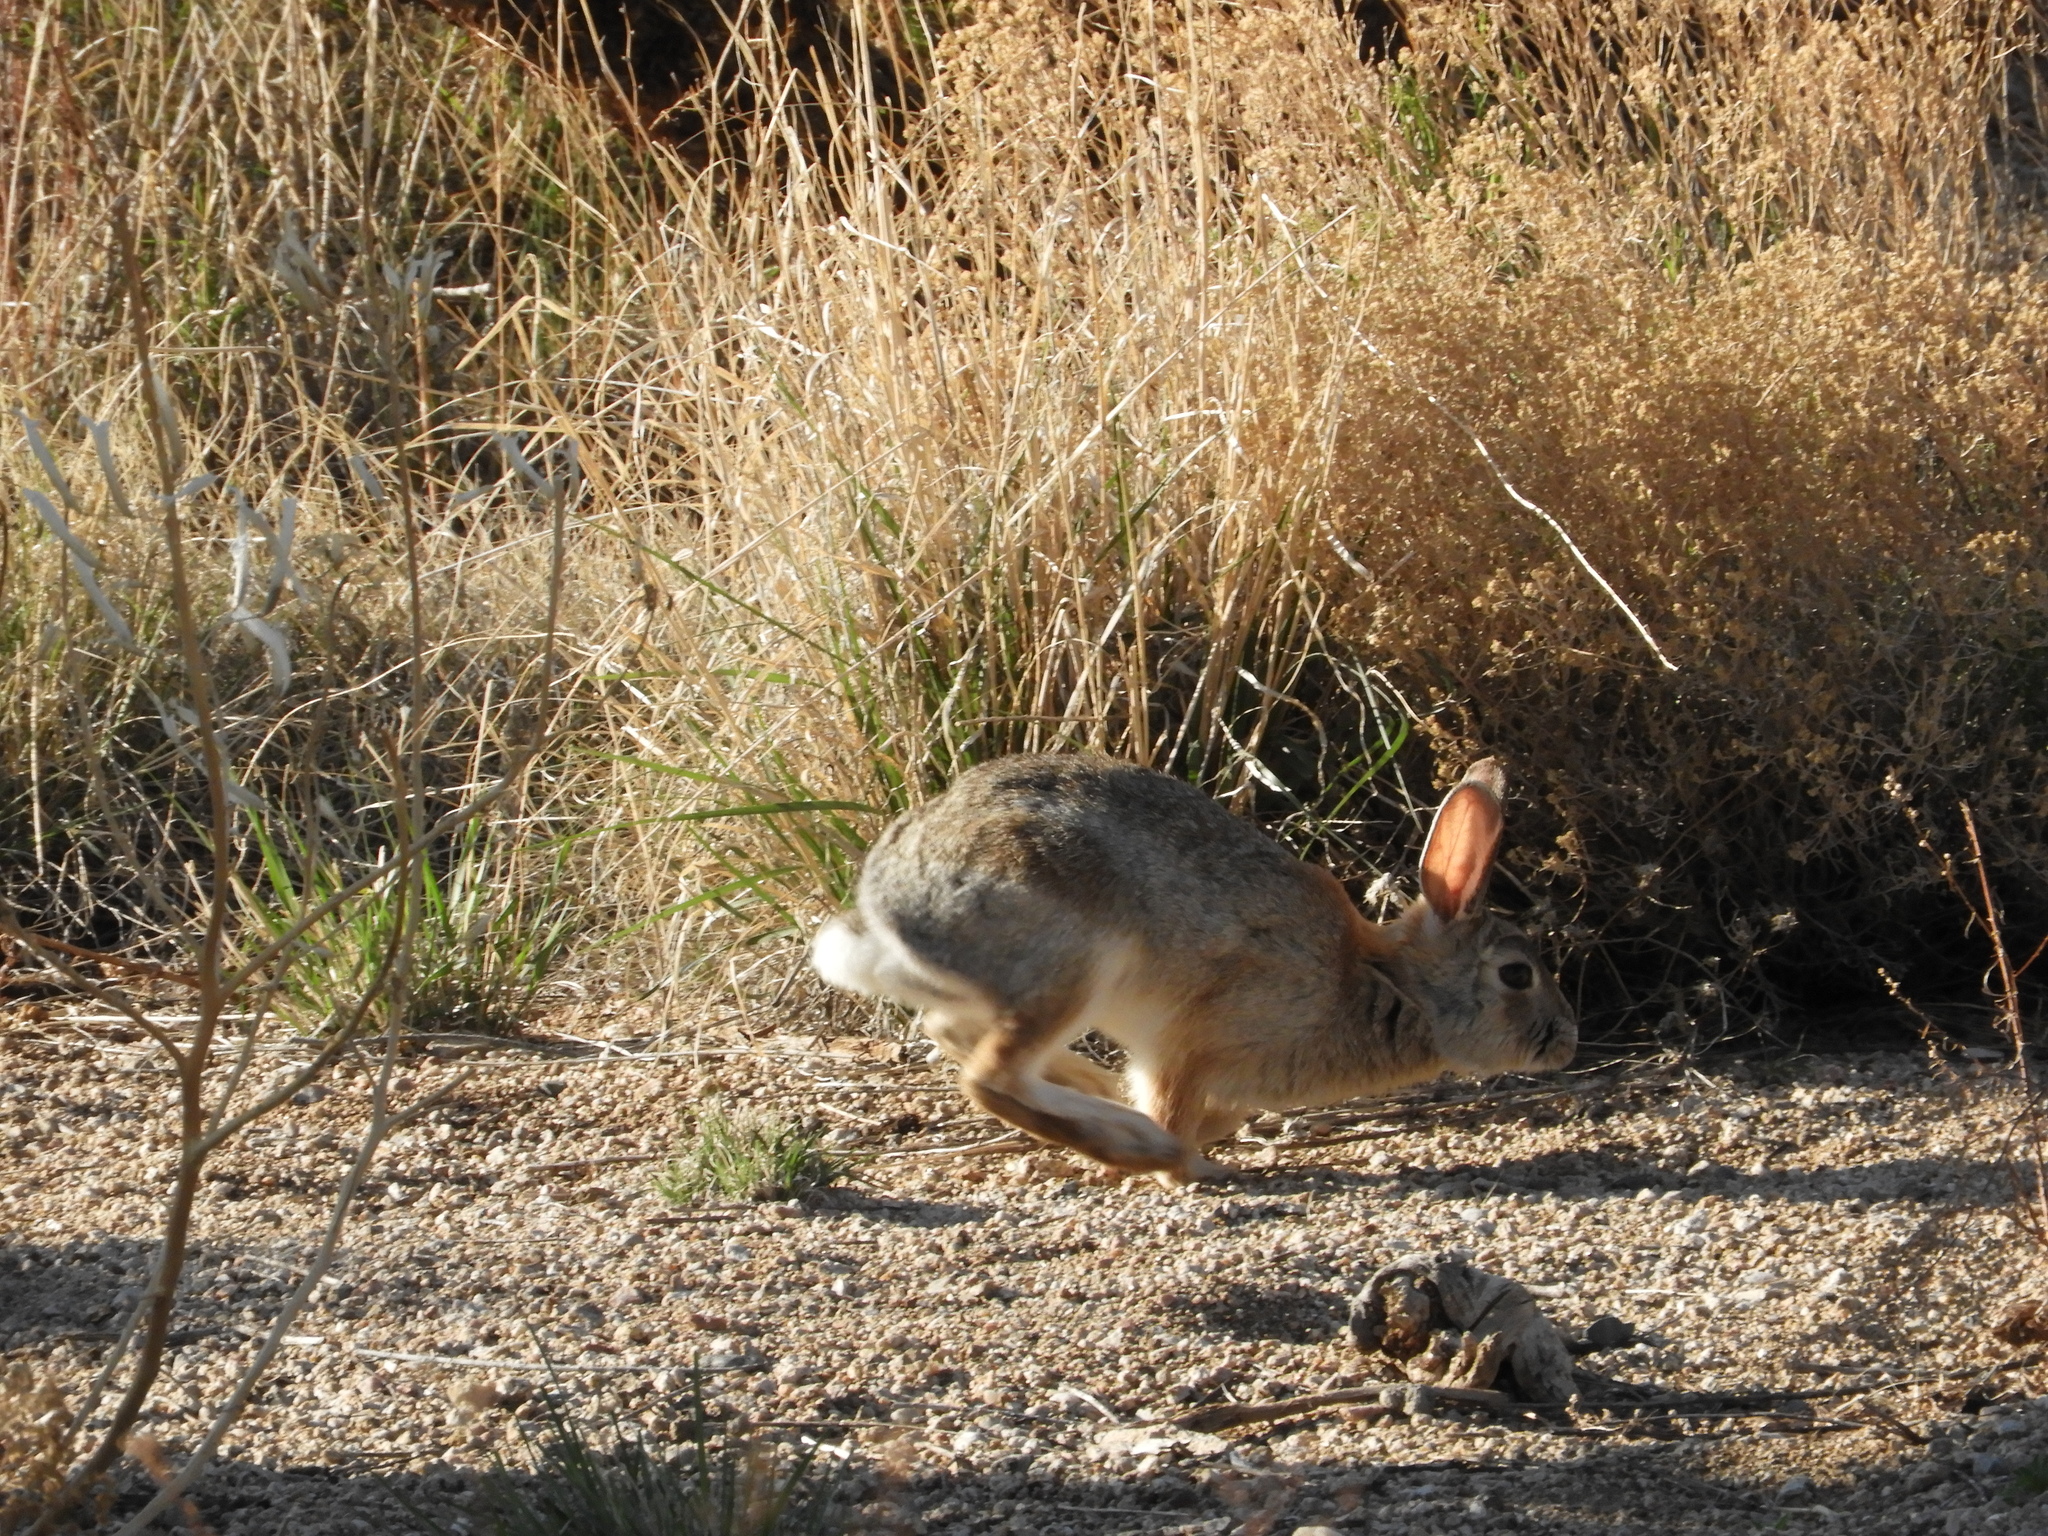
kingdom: Animalia
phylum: Chordata
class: Mammalia
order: Lagomorpha
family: Leporidae
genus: Sylvilagus
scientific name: Sylvilagus audubonii
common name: Desert cottontail
